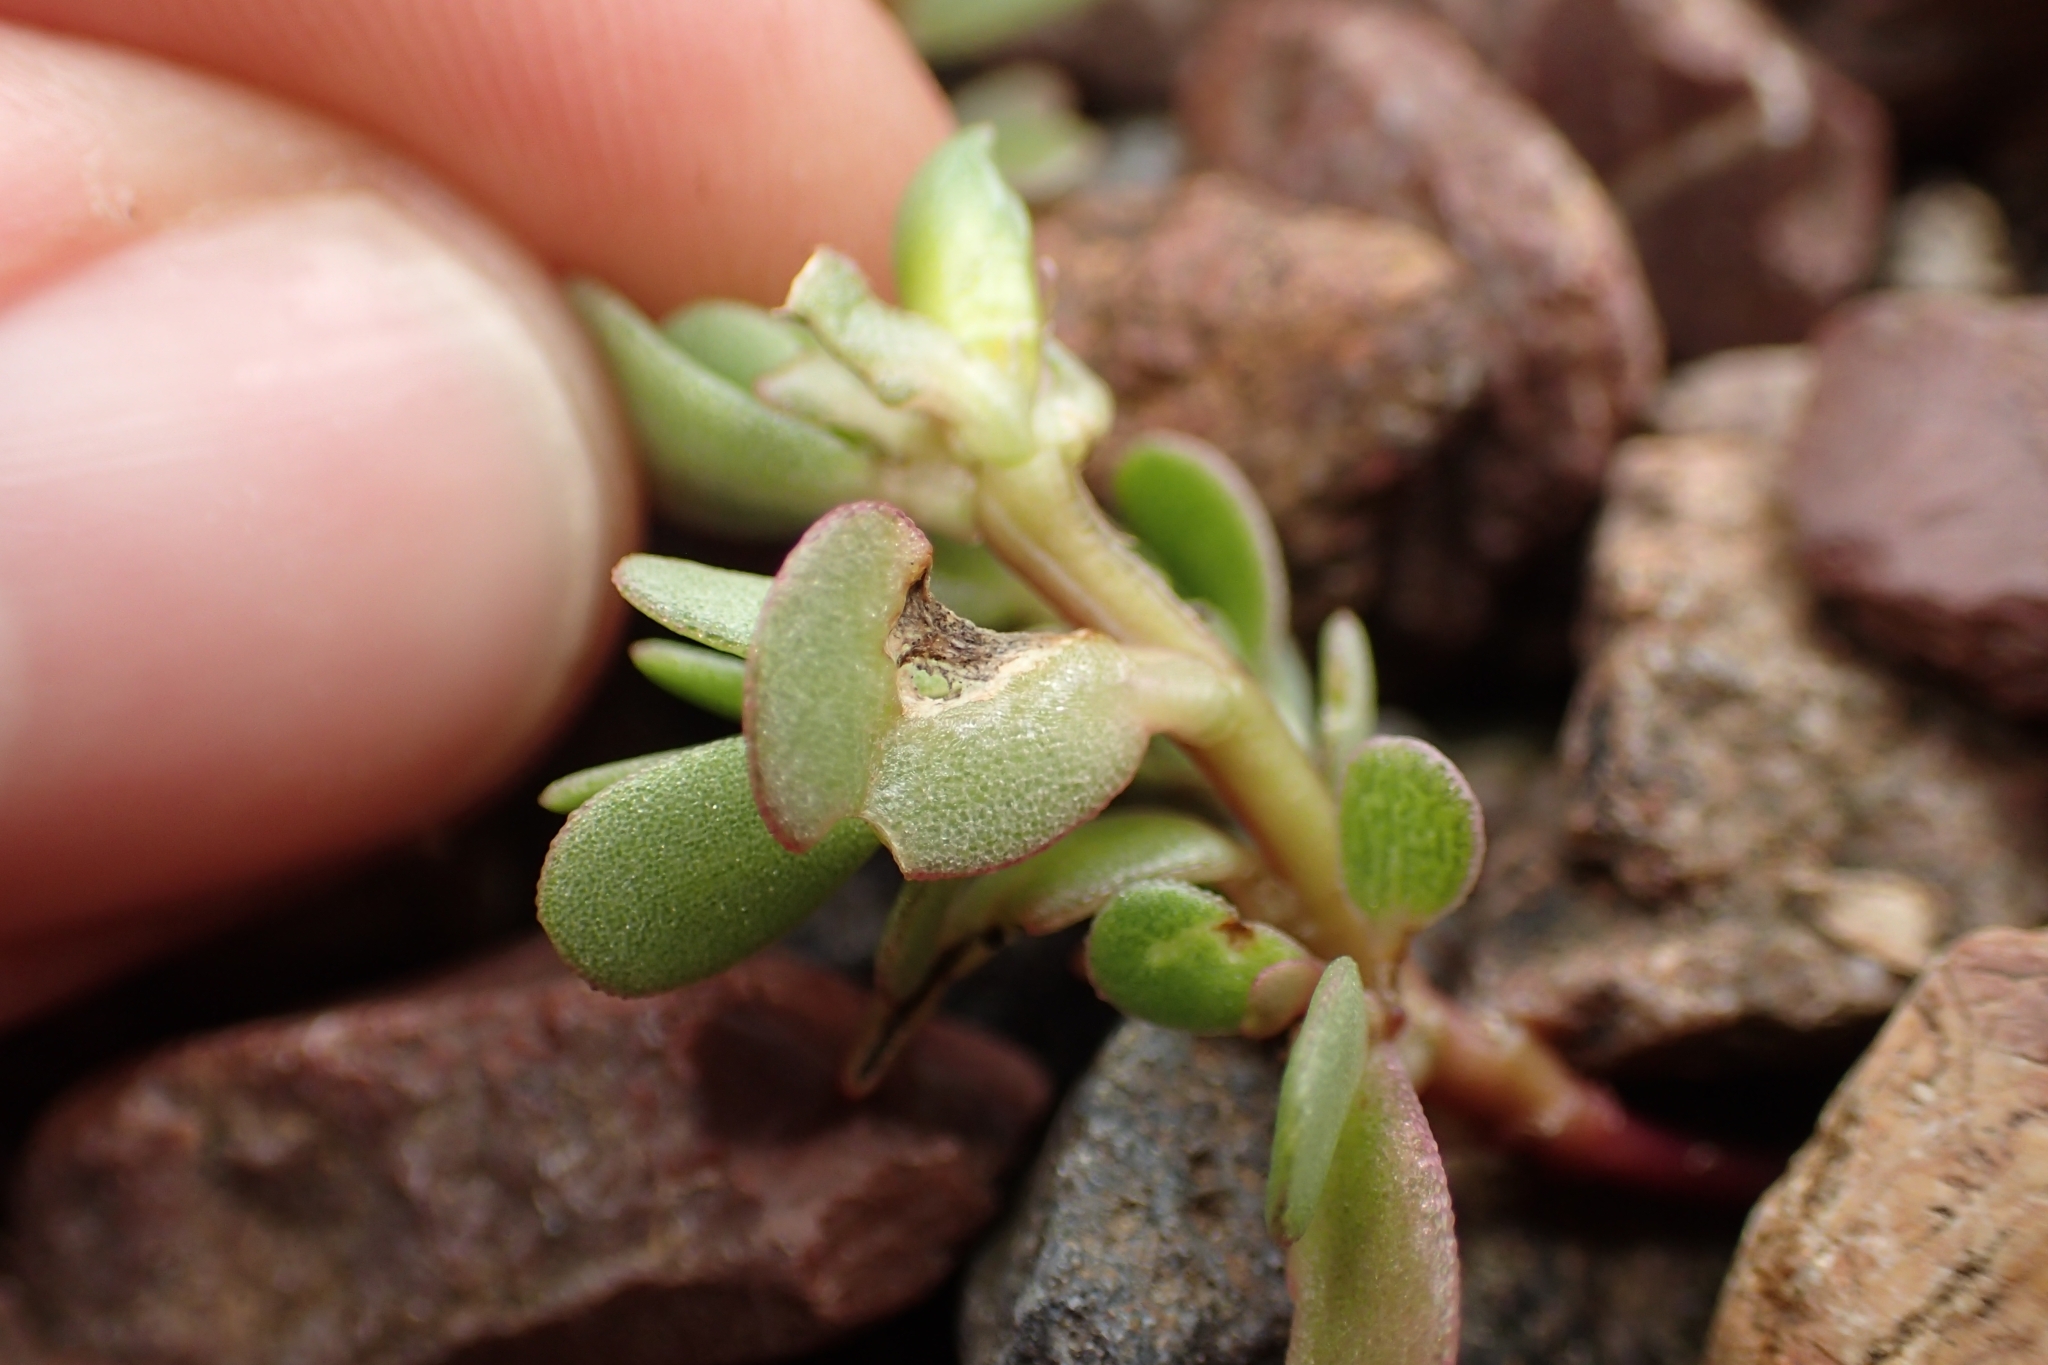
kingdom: Plantae
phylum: Tracheophyta
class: Magnoliopsida
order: Caryophyllales
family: Portulacaceae
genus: Portulaca
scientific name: Portulaca oleracea
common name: Common purslane
